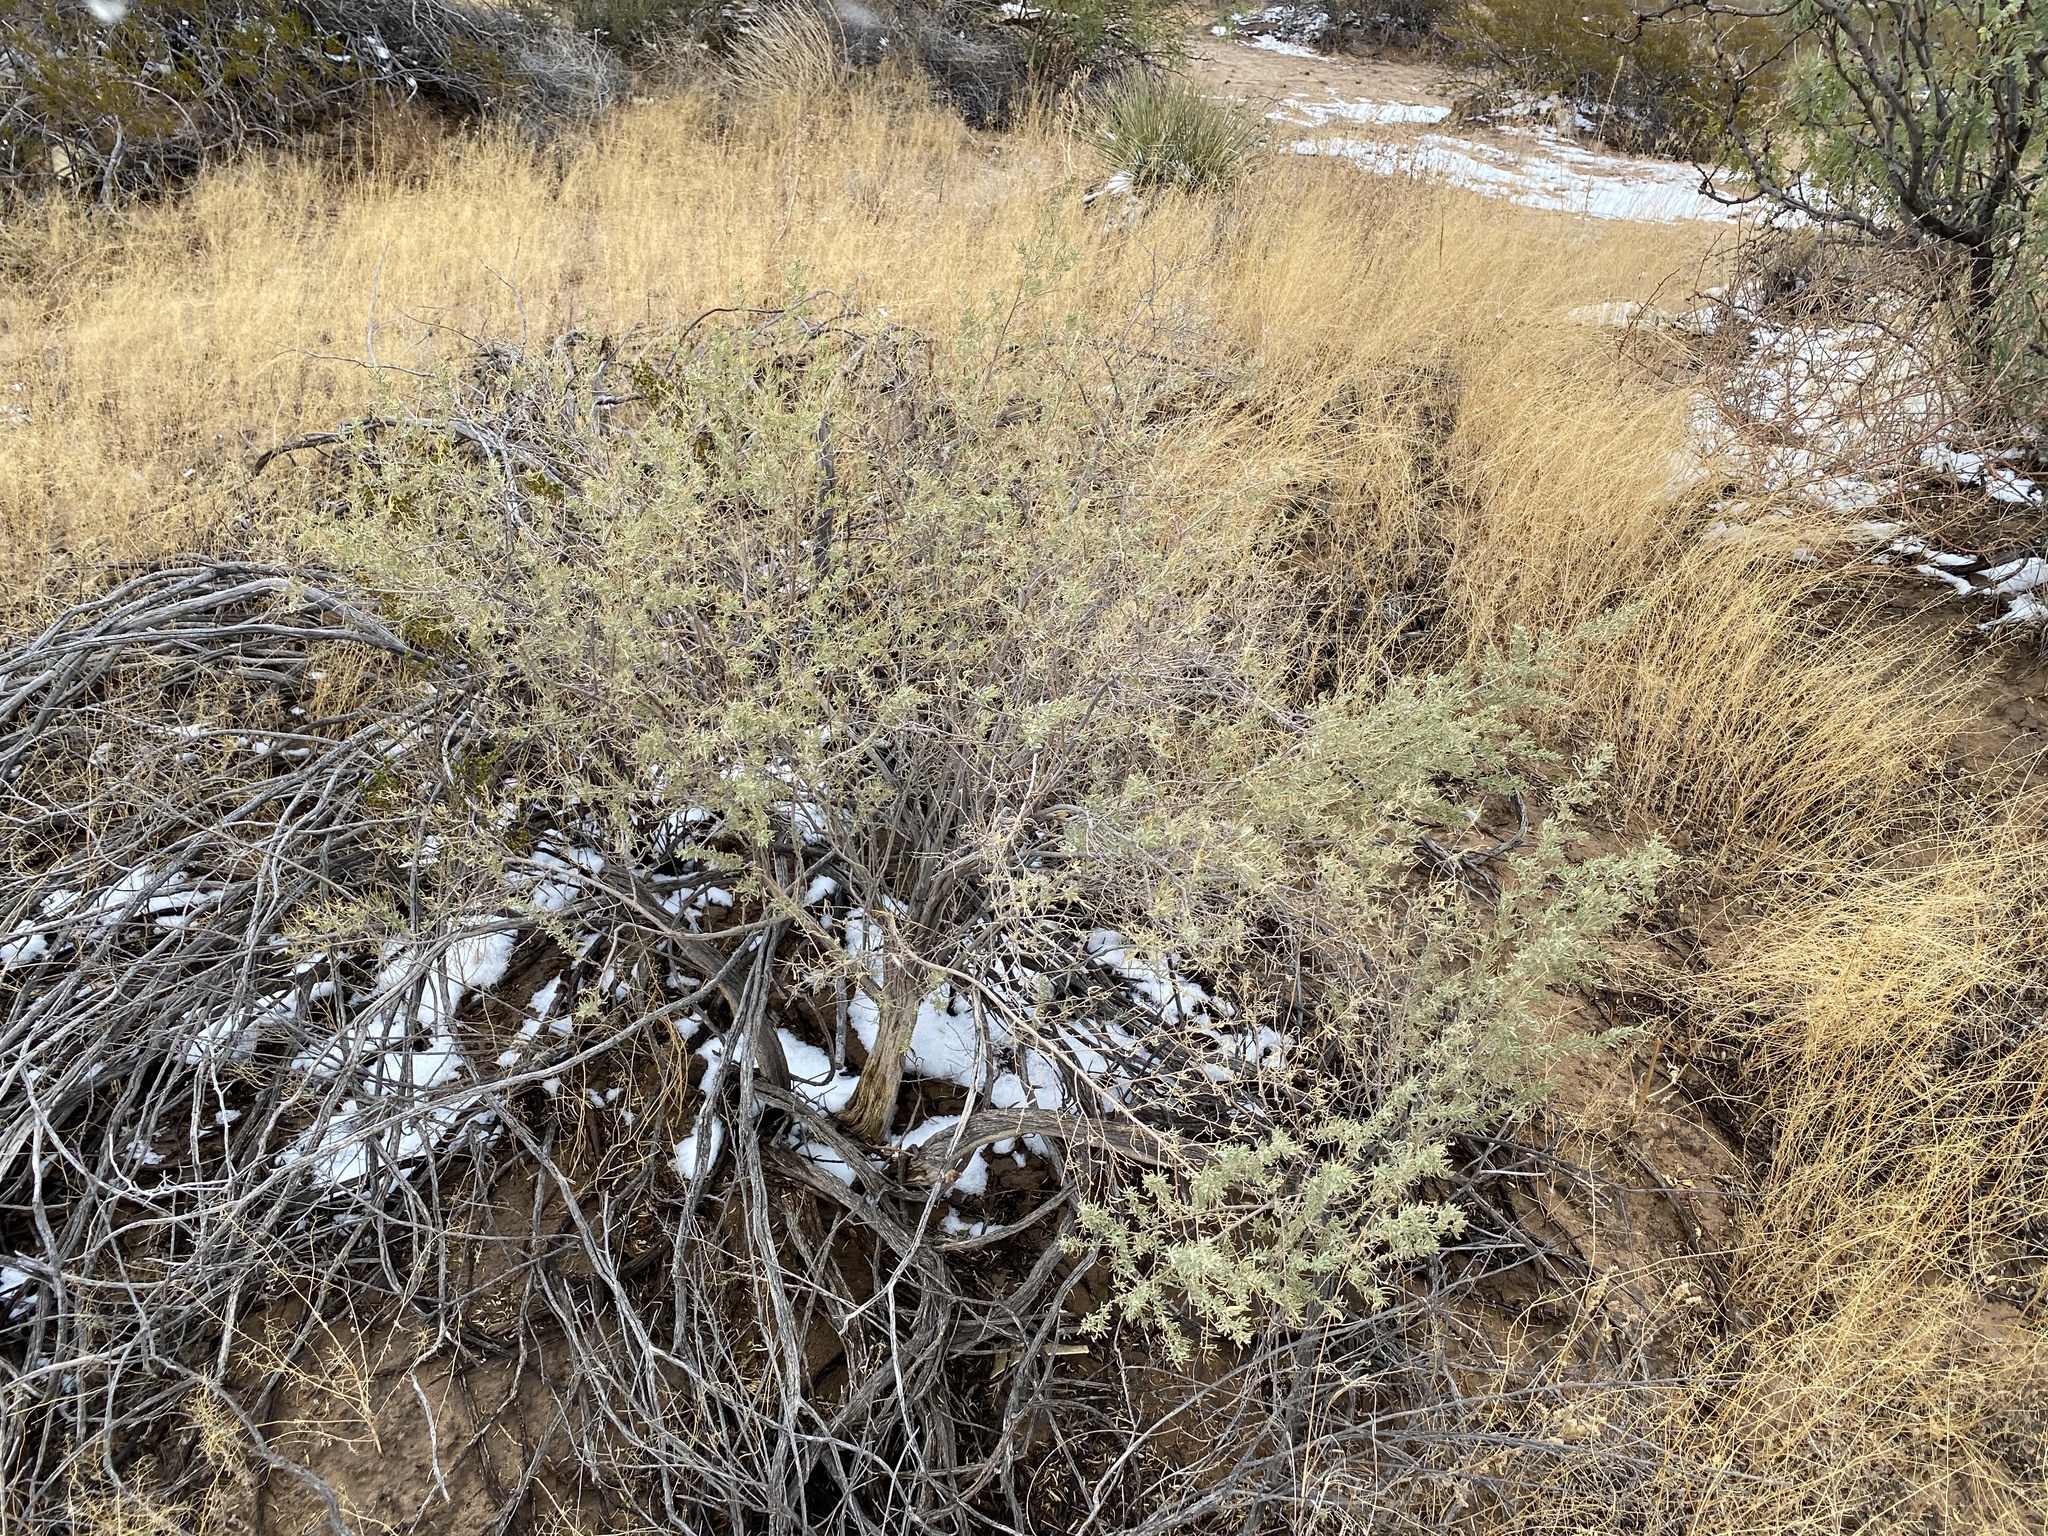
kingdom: Plantae
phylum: Tracheophyta
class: Magnoliopsida
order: Caryophyllales
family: Amaranthaceae
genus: Atriplex
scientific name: Atriplex canescens
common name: Four-wing saltbush
